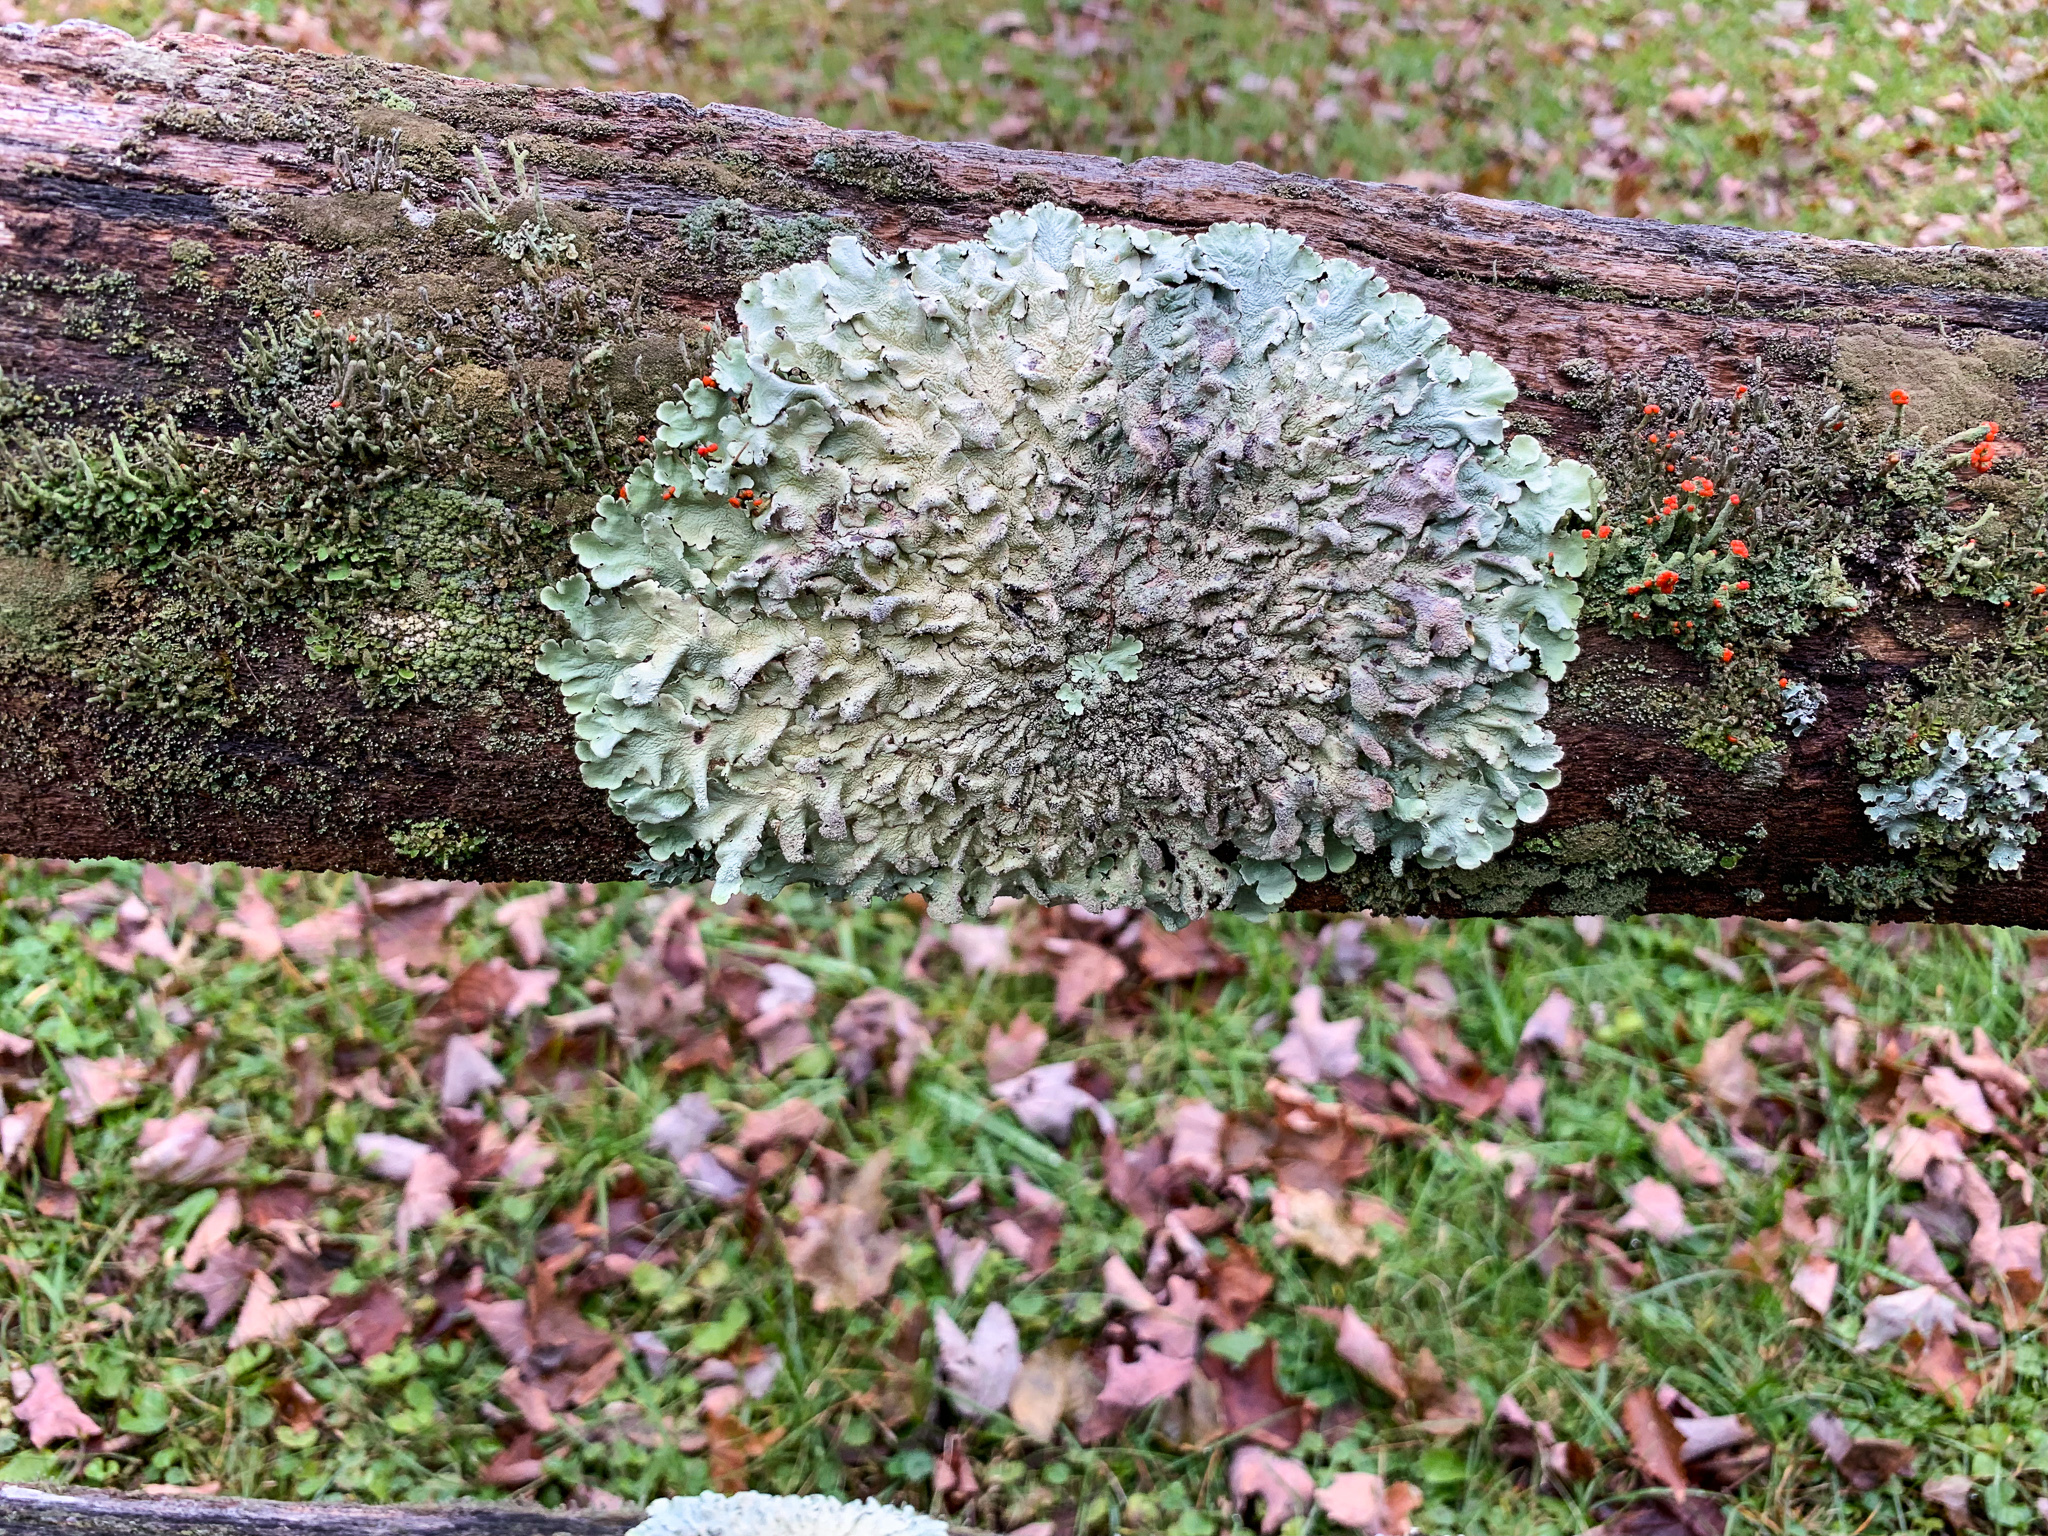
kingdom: Fungi
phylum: Ascomycota
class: Lecanoromycetes
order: Lecanorales
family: Parmeliaceae
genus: Flavoparmelia
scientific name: Flavoparmelia caperata
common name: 40-mile per hour lichen
